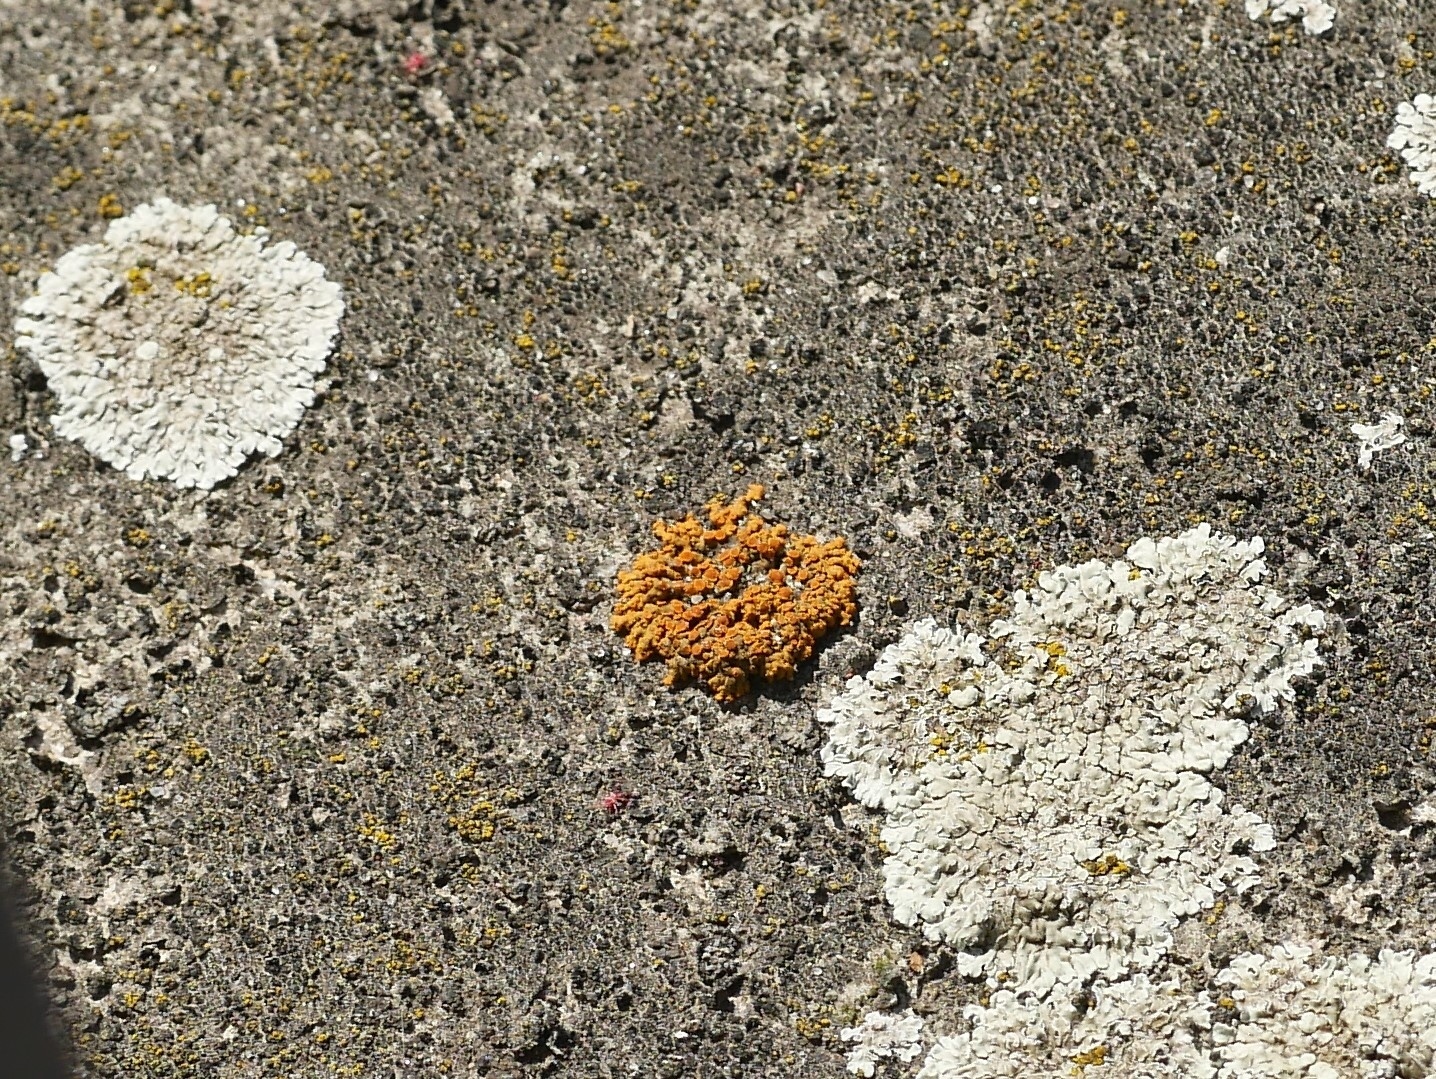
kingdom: Fungi
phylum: Ascomycota
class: Lecanoromycetes
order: Teloschistales
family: Teloschistaceae
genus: Xanthoria
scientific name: Xanthoria elegans
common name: Elegant sunburst lichen
